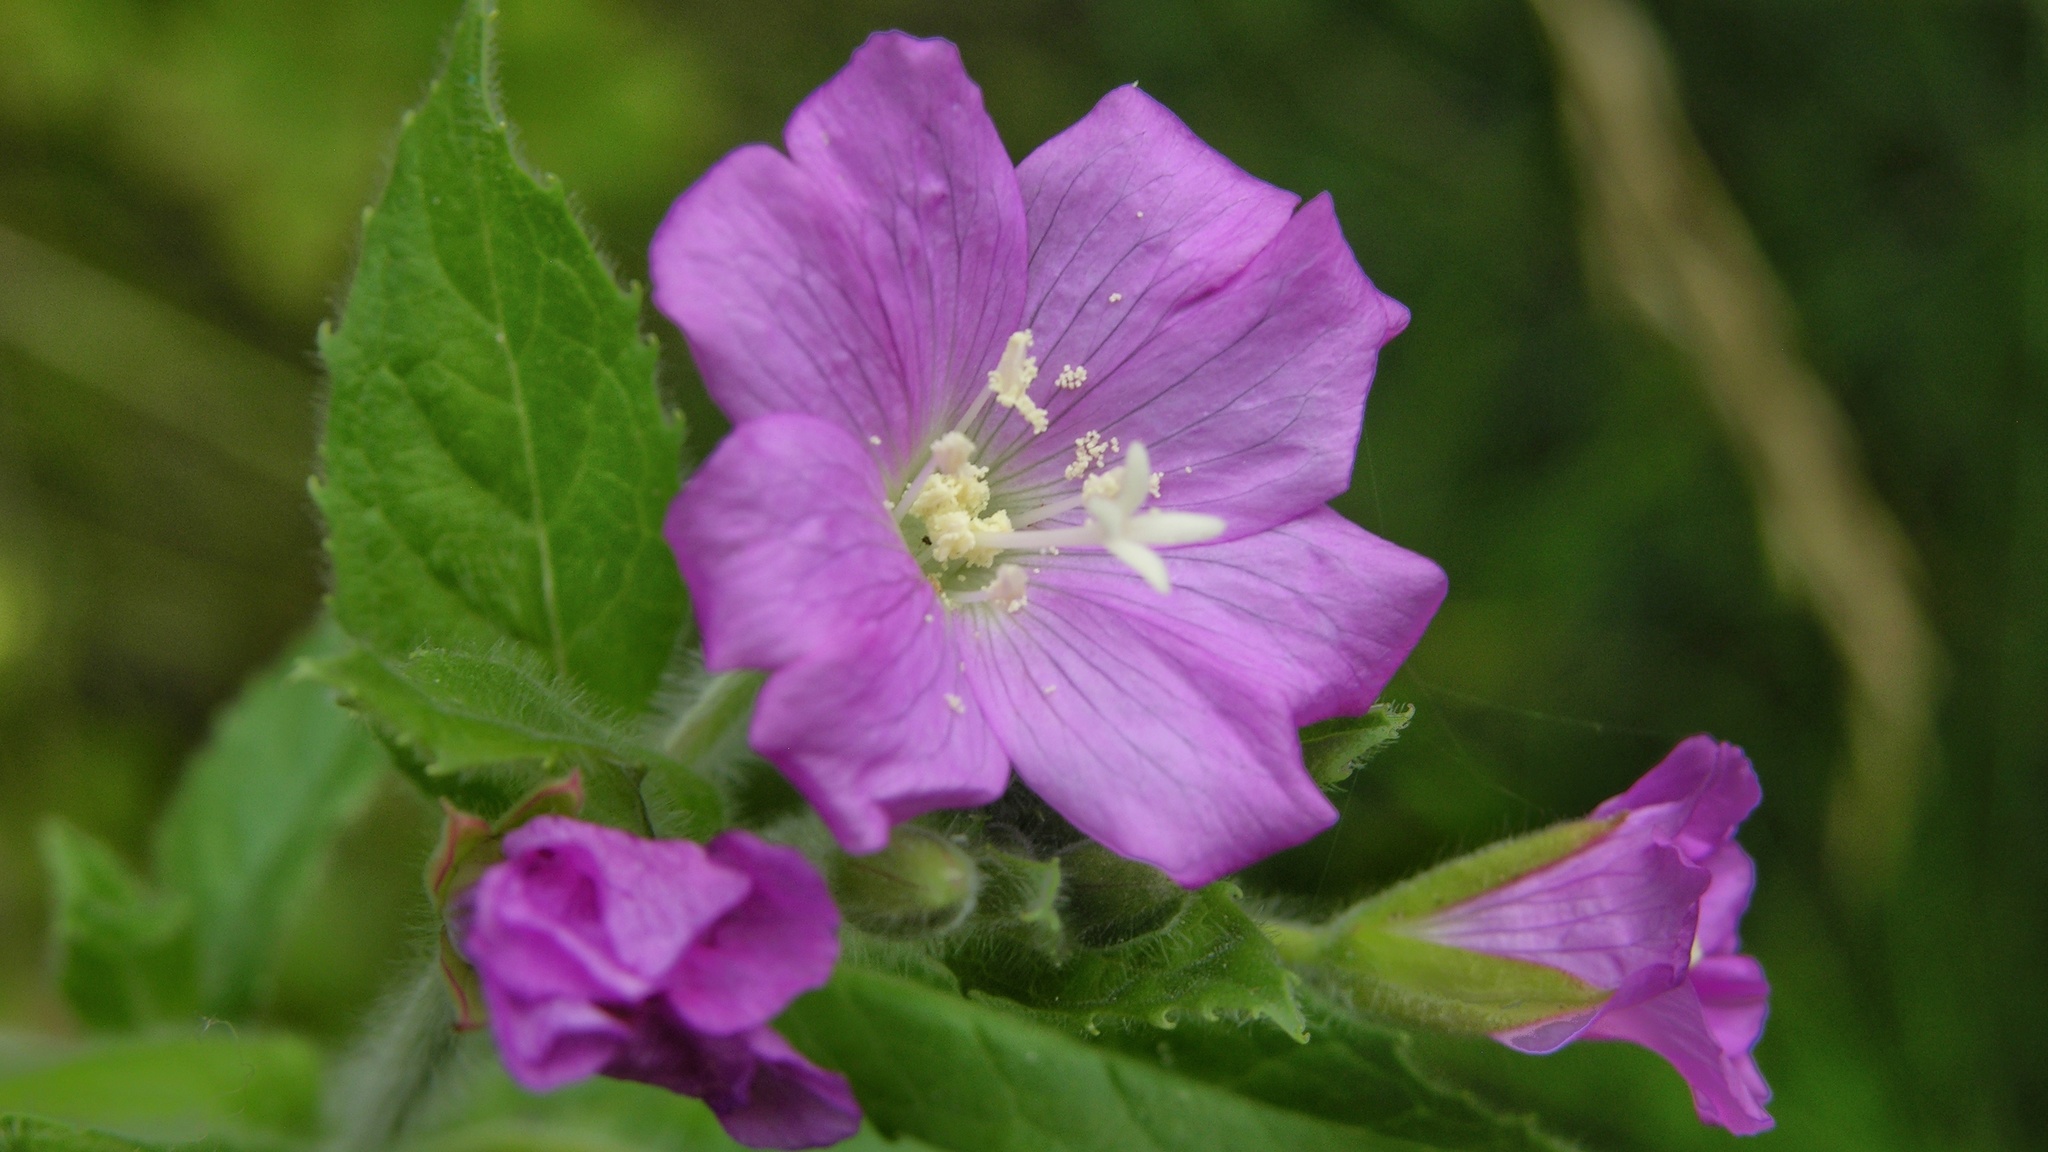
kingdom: Plantae
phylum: Tracheophyta
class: Magnoliopsida
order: Myrtales
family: Onagraceae
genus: Epilobium
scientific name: Epilobium hirsutum
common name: Great willowherb
